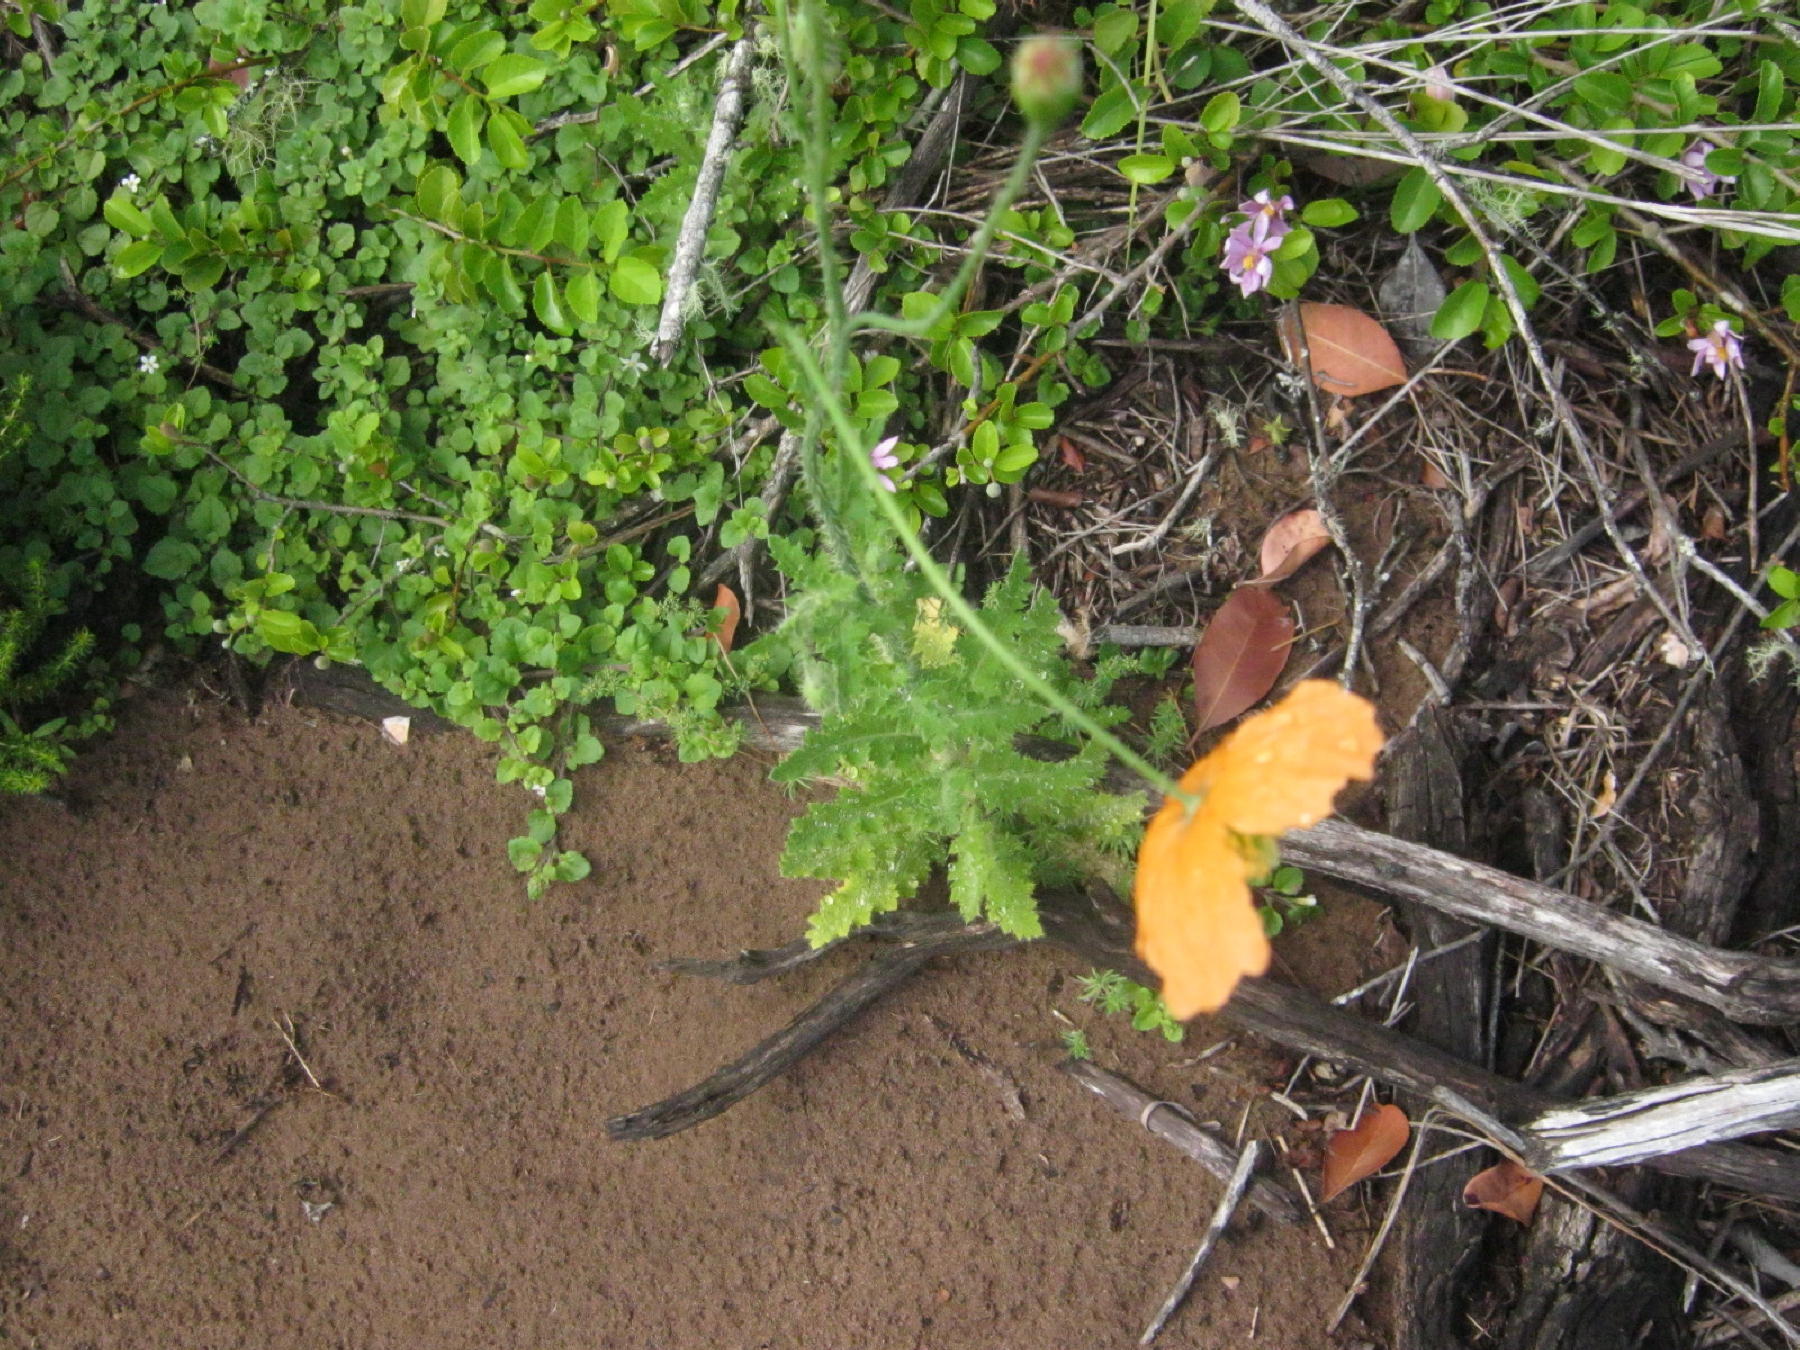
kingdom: Plantae
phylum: Tracheophyta
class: Magnoliopsida
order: Ranunculales
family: Papaveraceae
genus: Papaver
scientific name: Papaver aculeatum
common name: Bristle poppy
